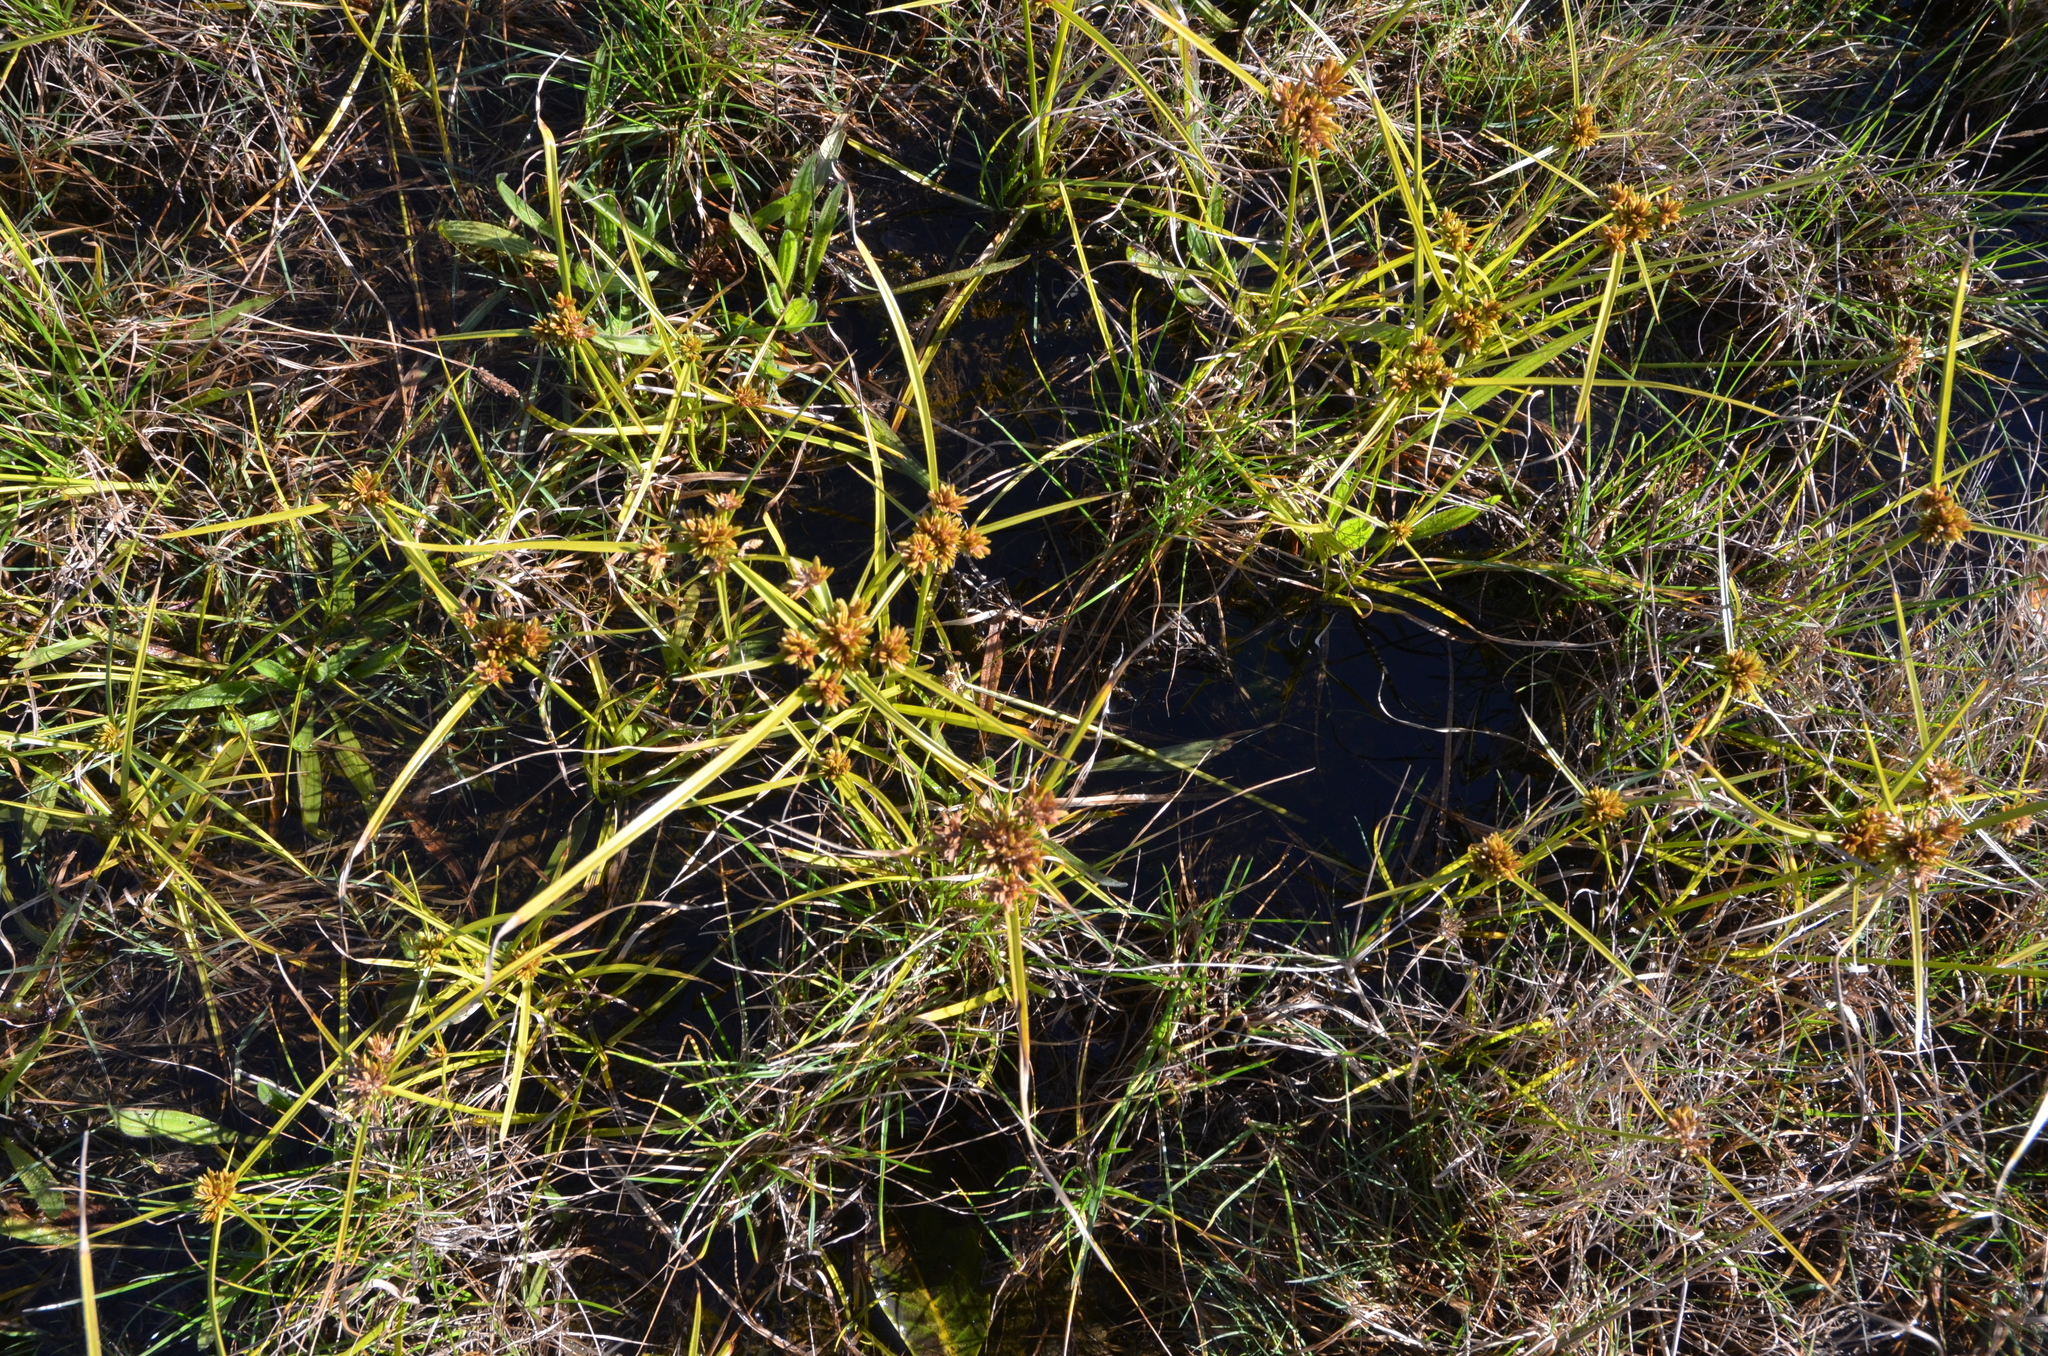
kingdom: Plantae
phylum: Tracheophyta
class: Liliopsida
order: Poales
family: Cyperaceae
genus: Cyperus
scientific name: Cyperus eragrostis
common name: Tall flatsedge
